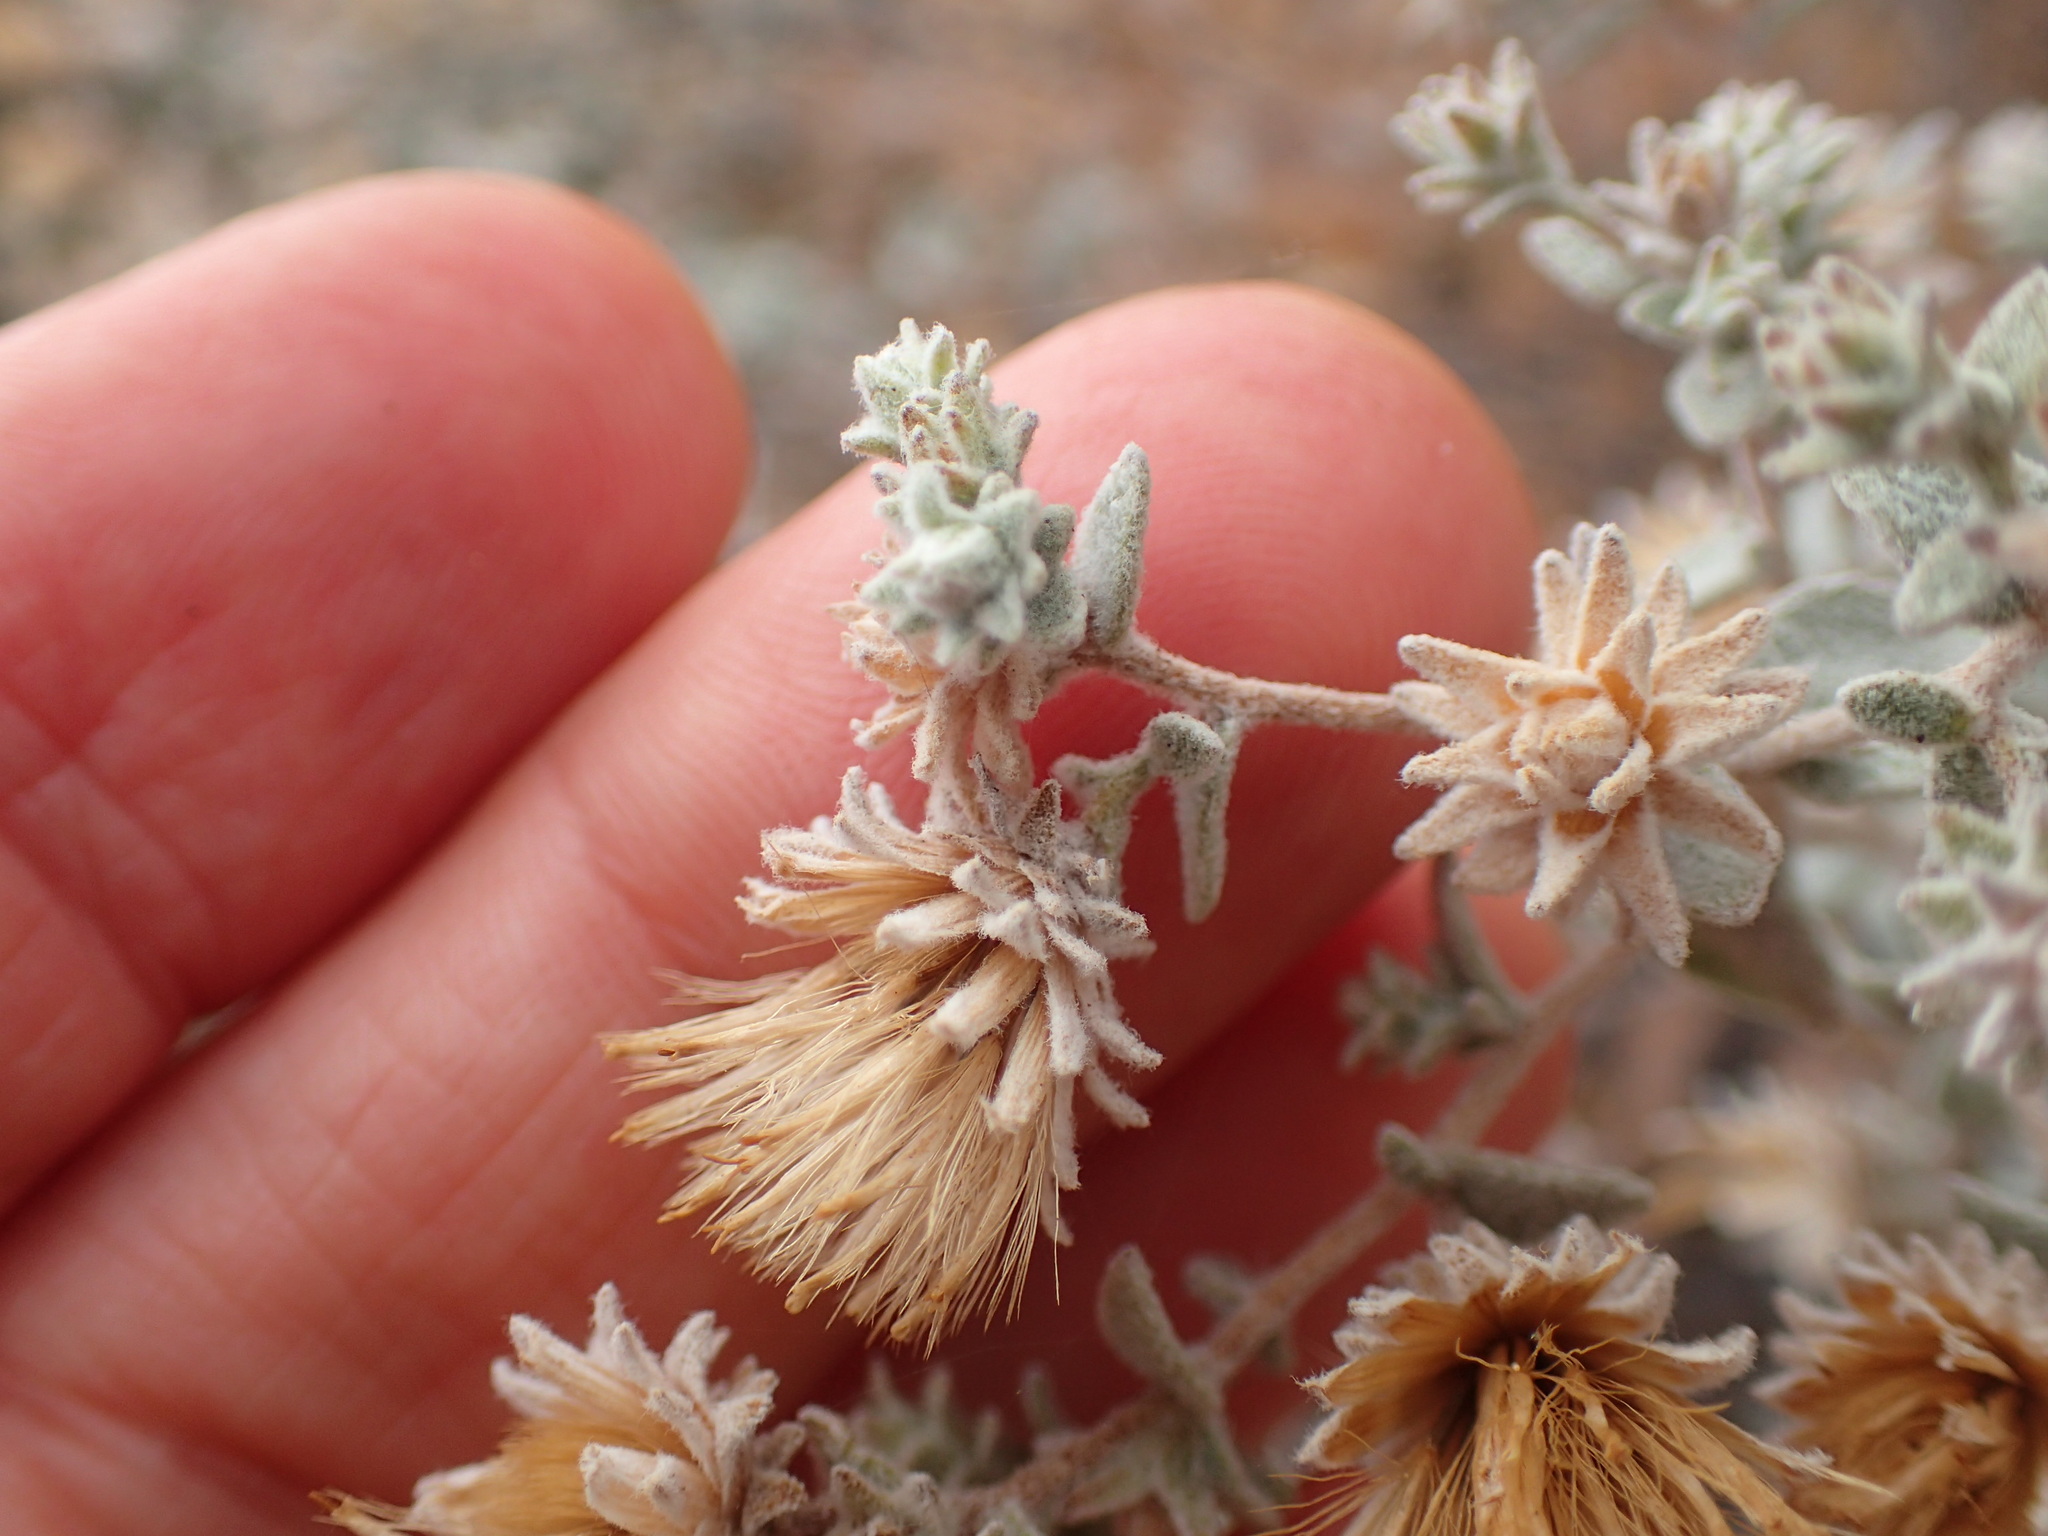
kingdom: Plantae
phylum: Tracheophyta
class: Magnoliopsida
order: Asterales
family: Asteraceae
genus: Brickellia
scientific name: Brickellia nevinii
